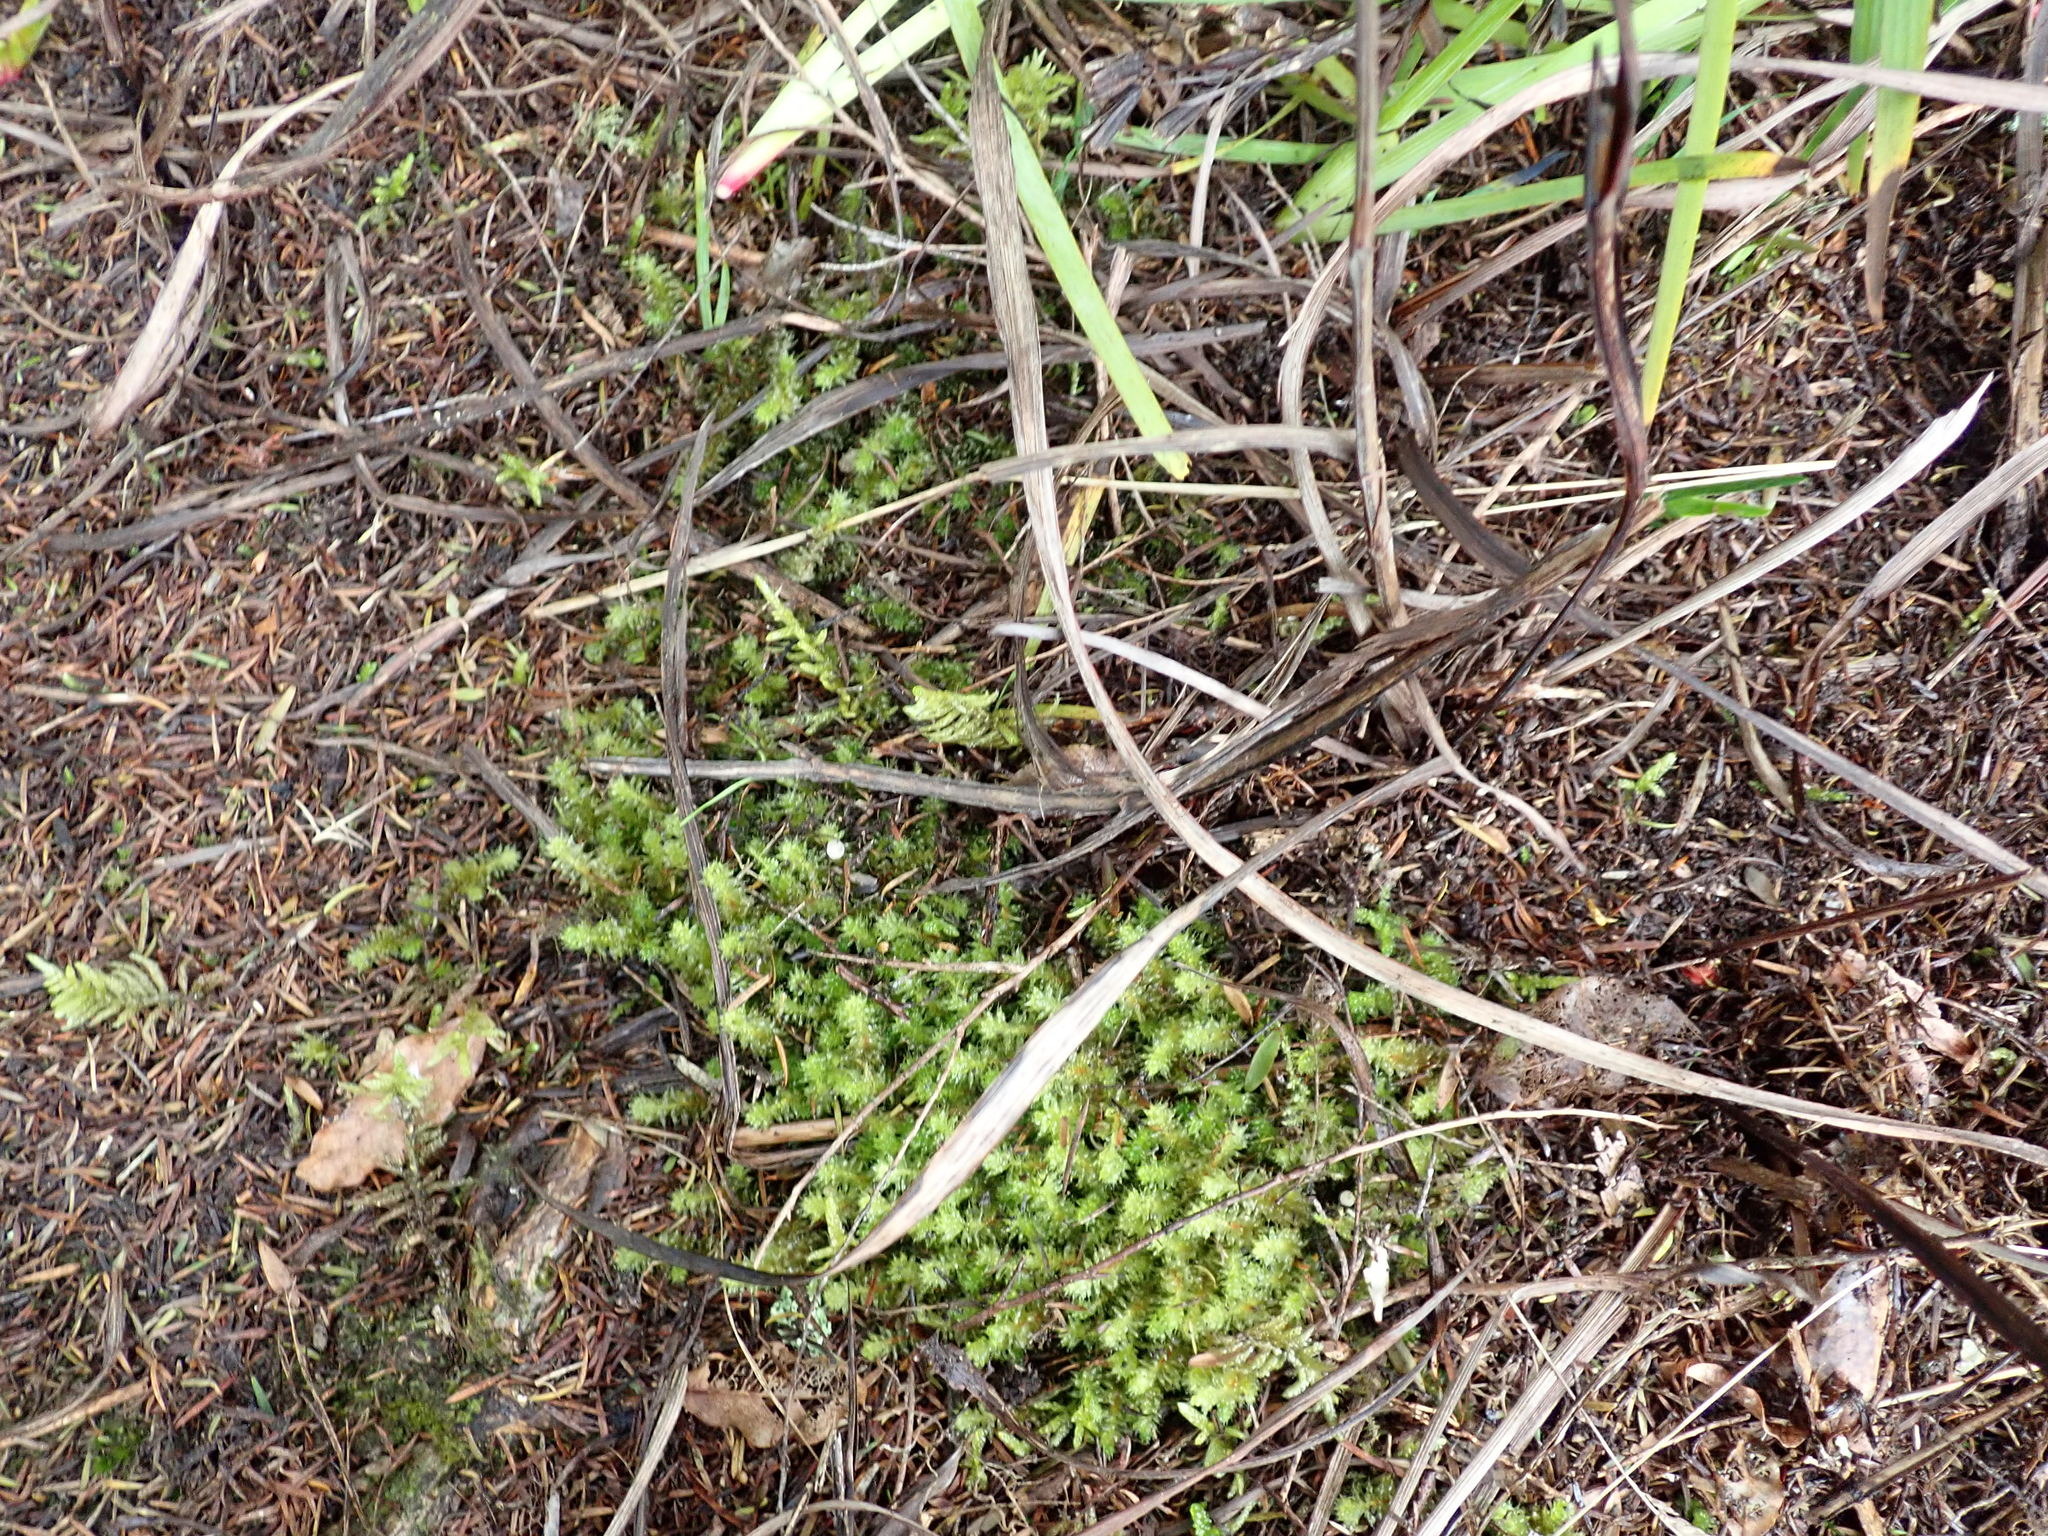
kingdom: Plantae
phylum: Bryophyta
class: Bryopsida
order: Ptychomniales
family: Ptychomniaceae
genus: Ptychomnion
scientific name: Ptychomnion aciculare
